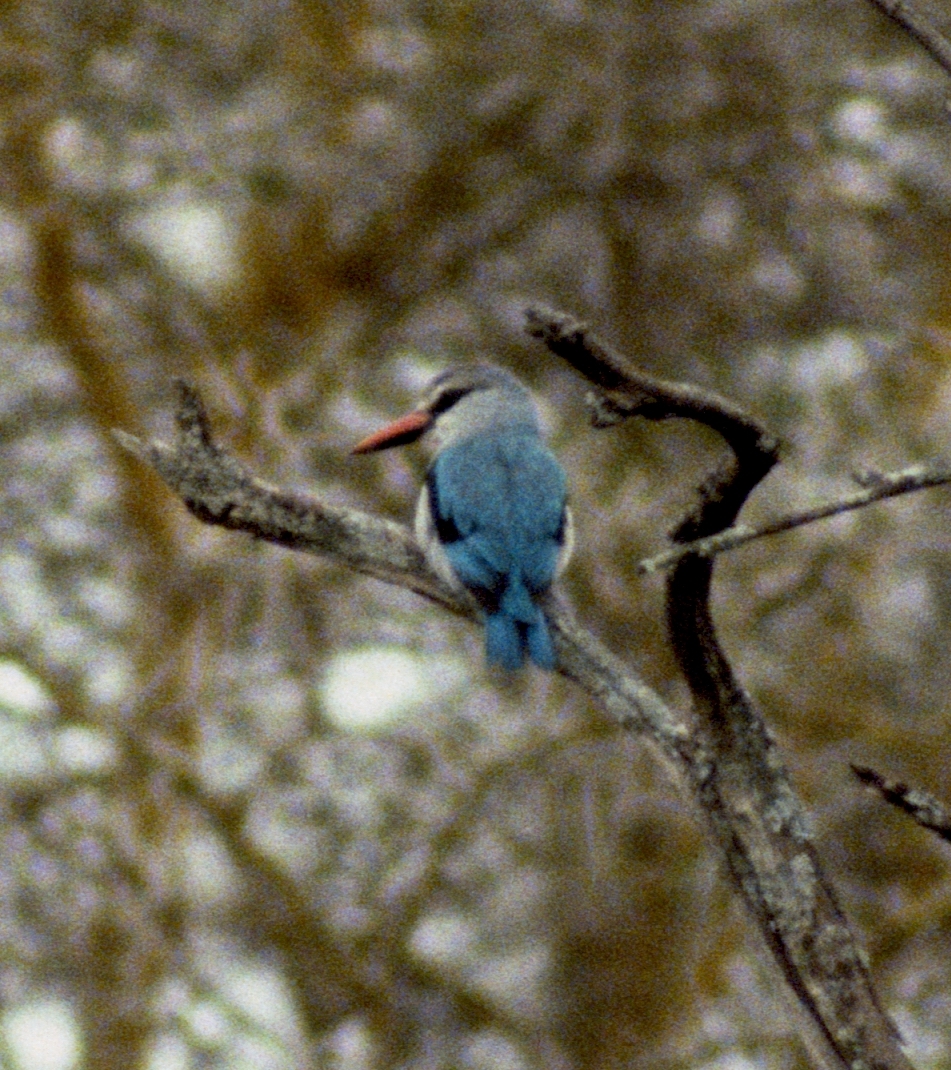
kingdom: Animalia
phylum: Chordata
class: Aves
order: Coraciiformes
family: Alcedinidae
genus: Halcyon
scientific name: Halcyon senegalensis
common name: Woodland kingfisher
